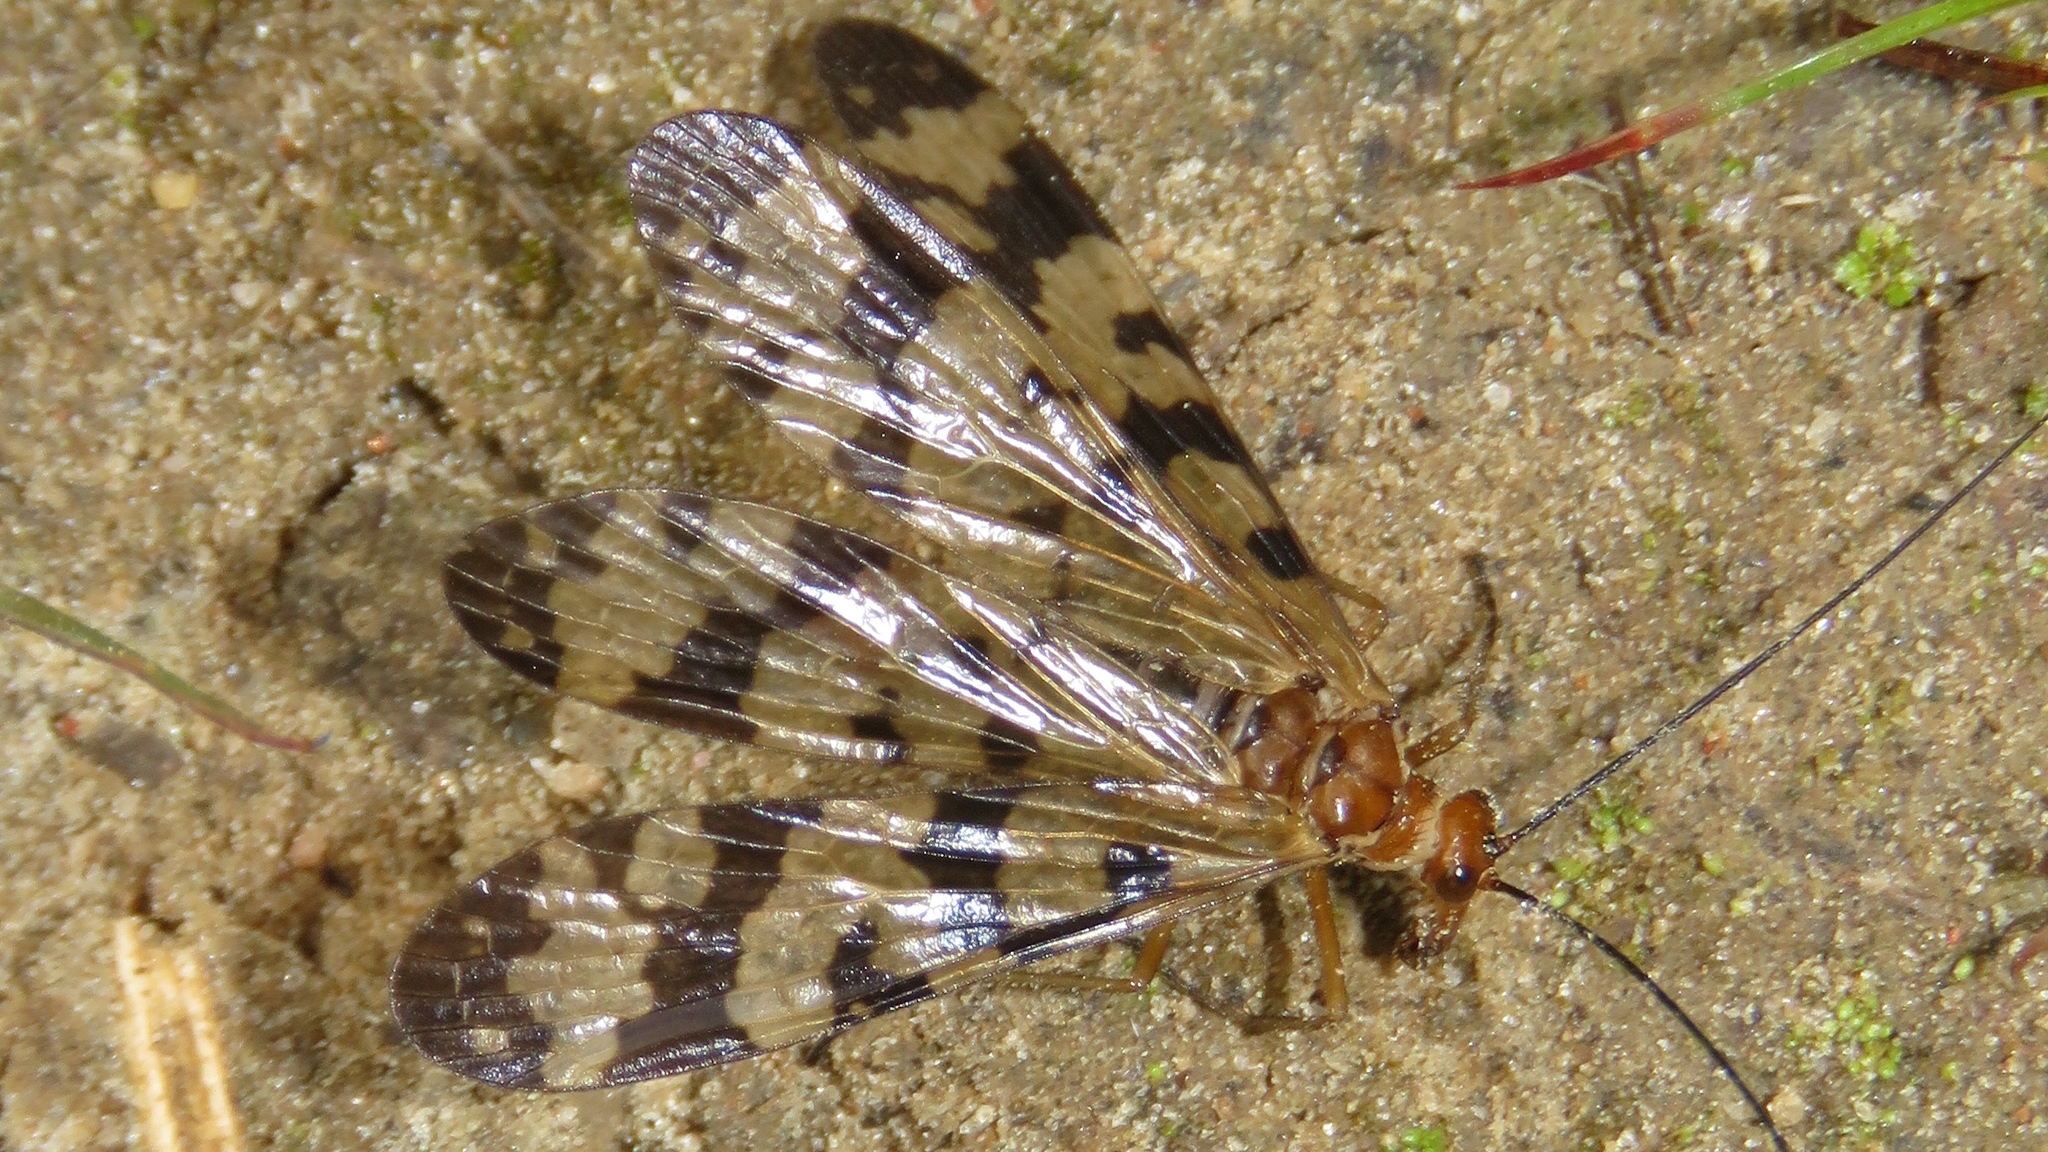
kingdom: Animalia
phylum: Arthropoda
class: Insecta
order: Mecoptera
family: Panorpidae
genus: Panorpa
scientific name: Panorpa galerita
